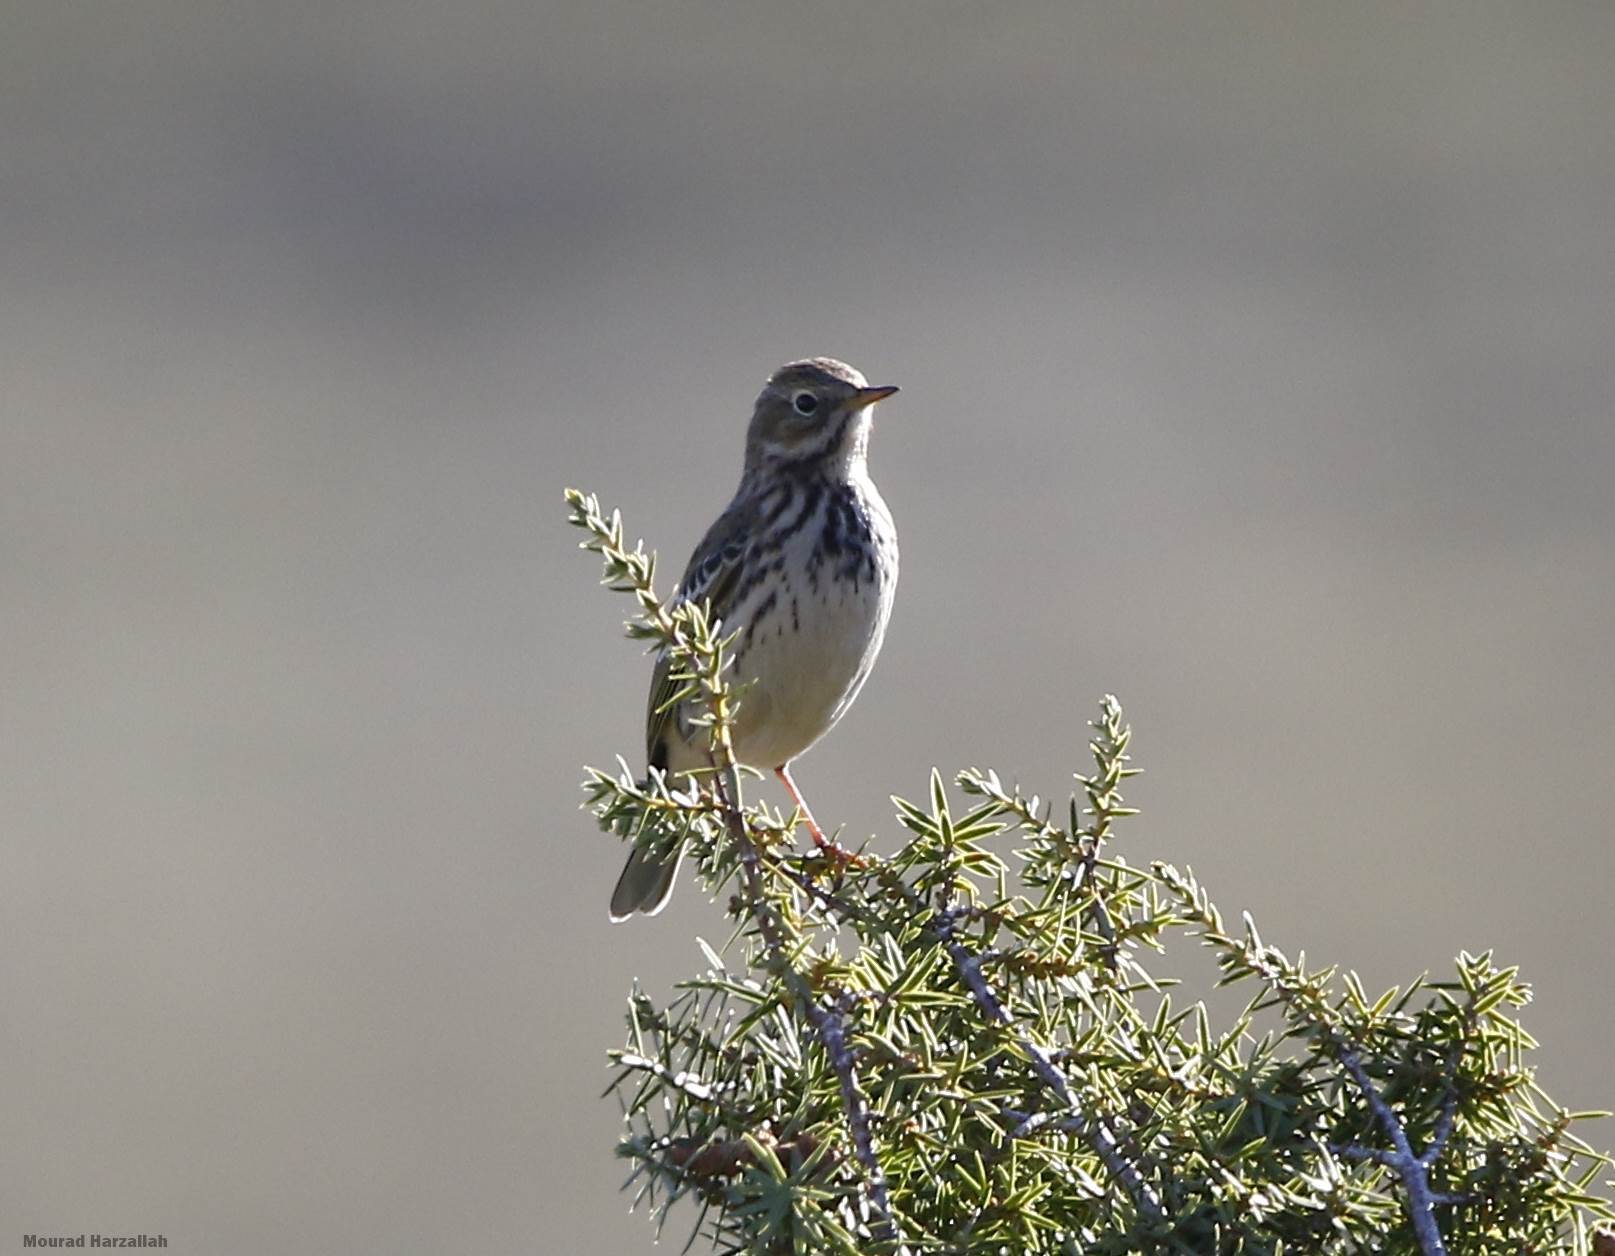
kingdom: Animalia
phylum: Chordata
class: Aves
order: Passeriformes
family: Motacillidae
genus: Anthus
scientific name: Anthus pratensis
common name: Meadow pipit
